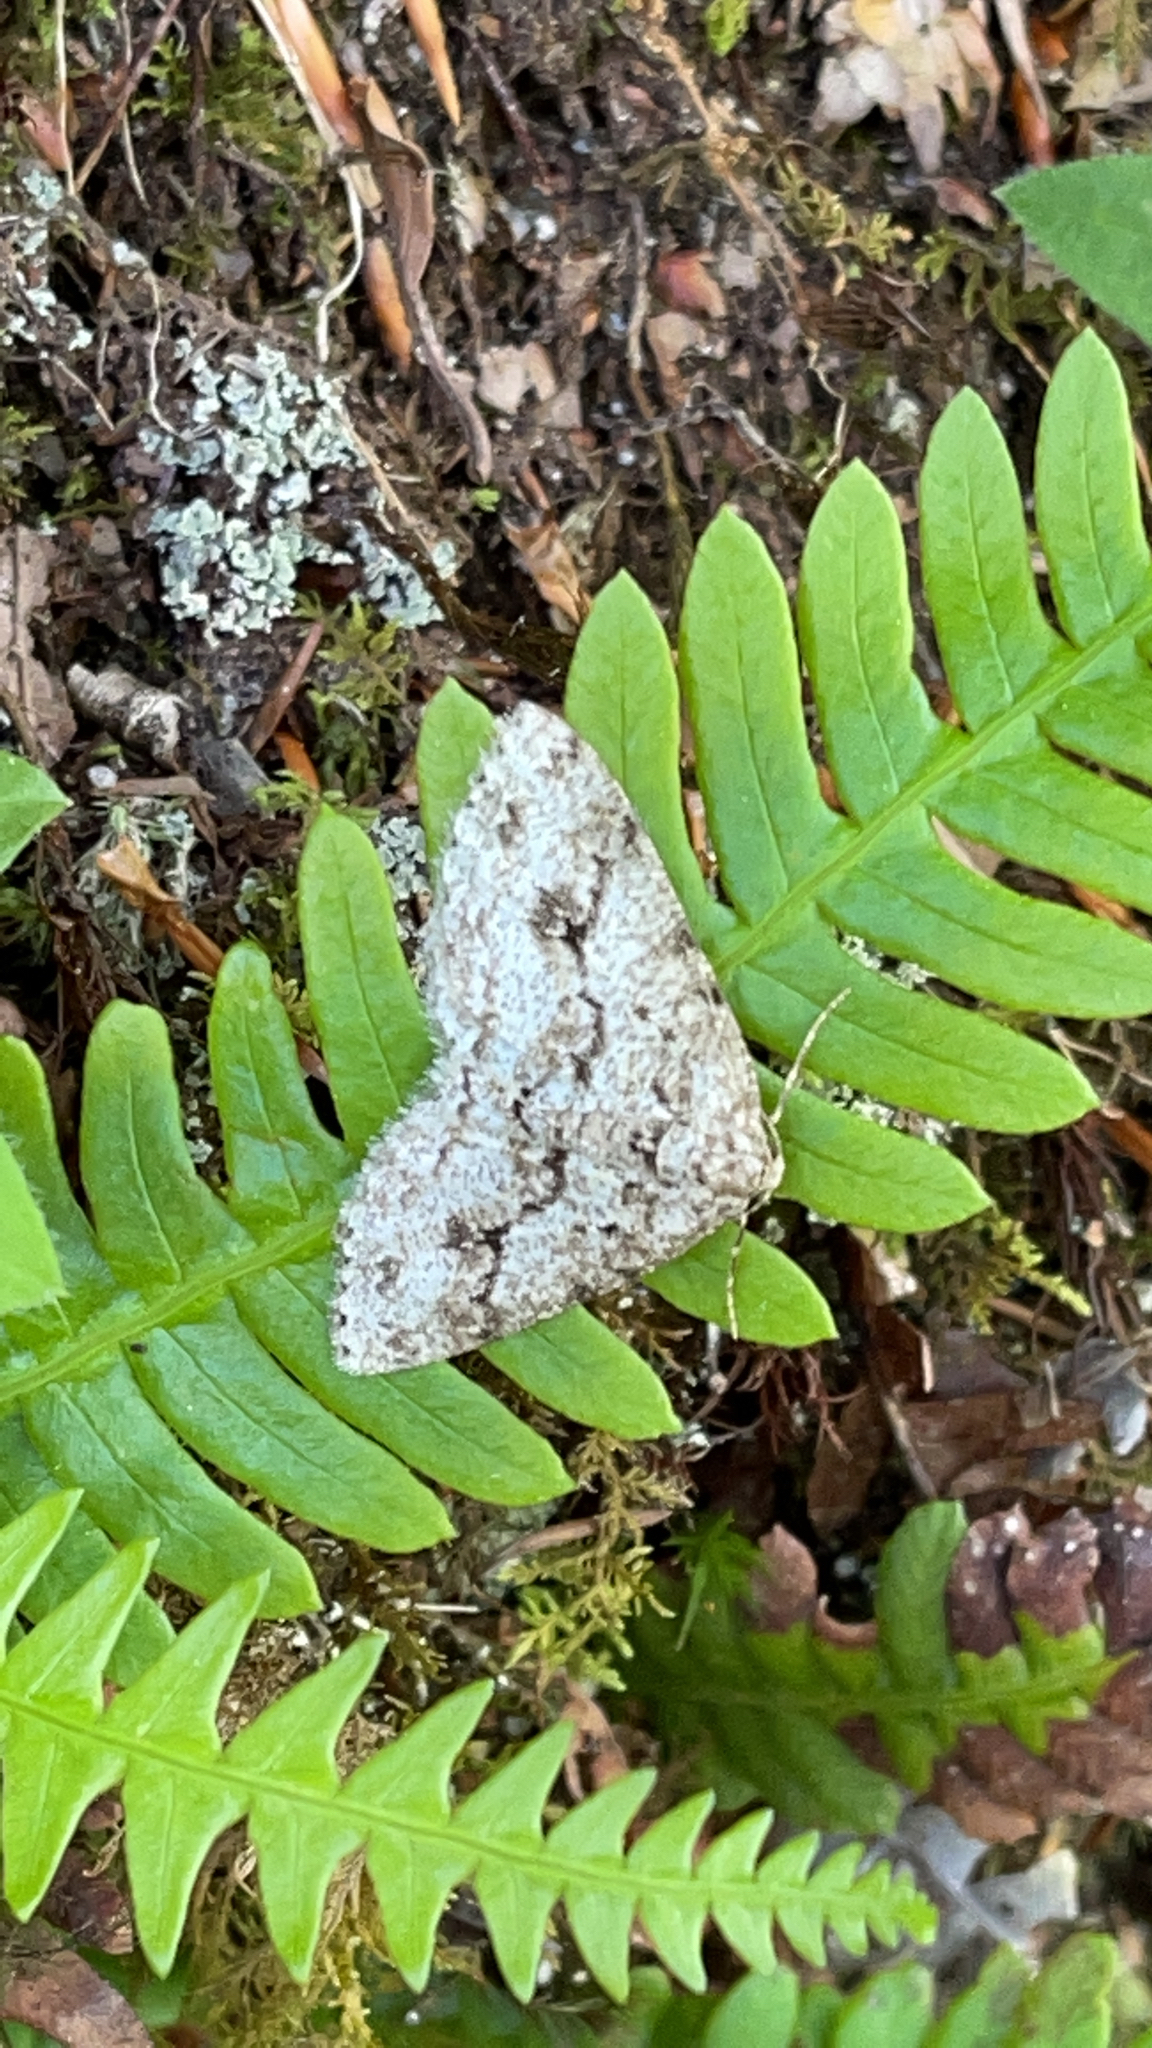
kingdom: Animalia
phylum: Arthropoda
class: Insecta
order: Lepidoptera
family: Geometridae
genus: Ectropis
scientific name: Ectropis crepuscularia
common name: Engrailed
